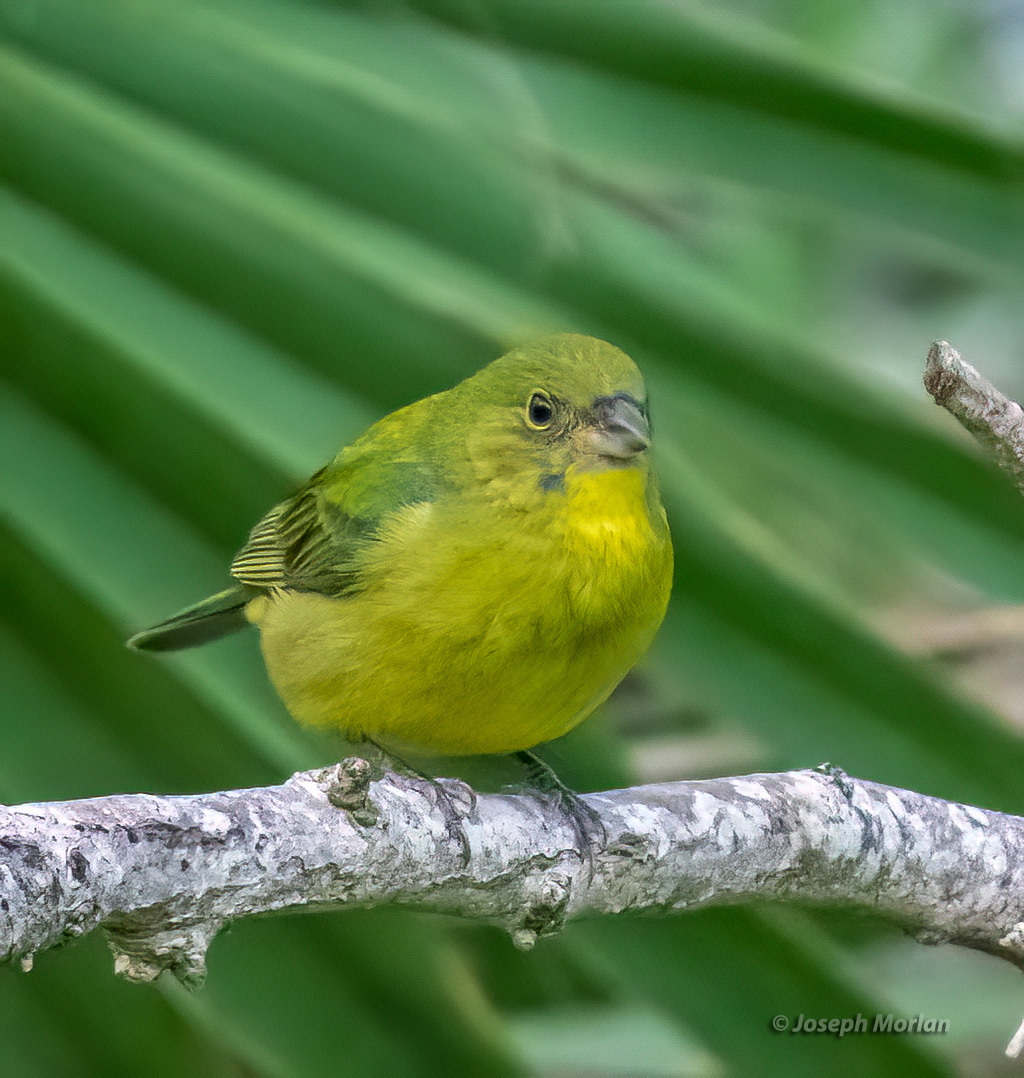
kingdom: Animalia
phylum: Chordata
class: Aves
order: Passeriformes
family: Cardinalidae
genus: Passerina
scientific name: Passerina ciris
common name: Painted bunting
